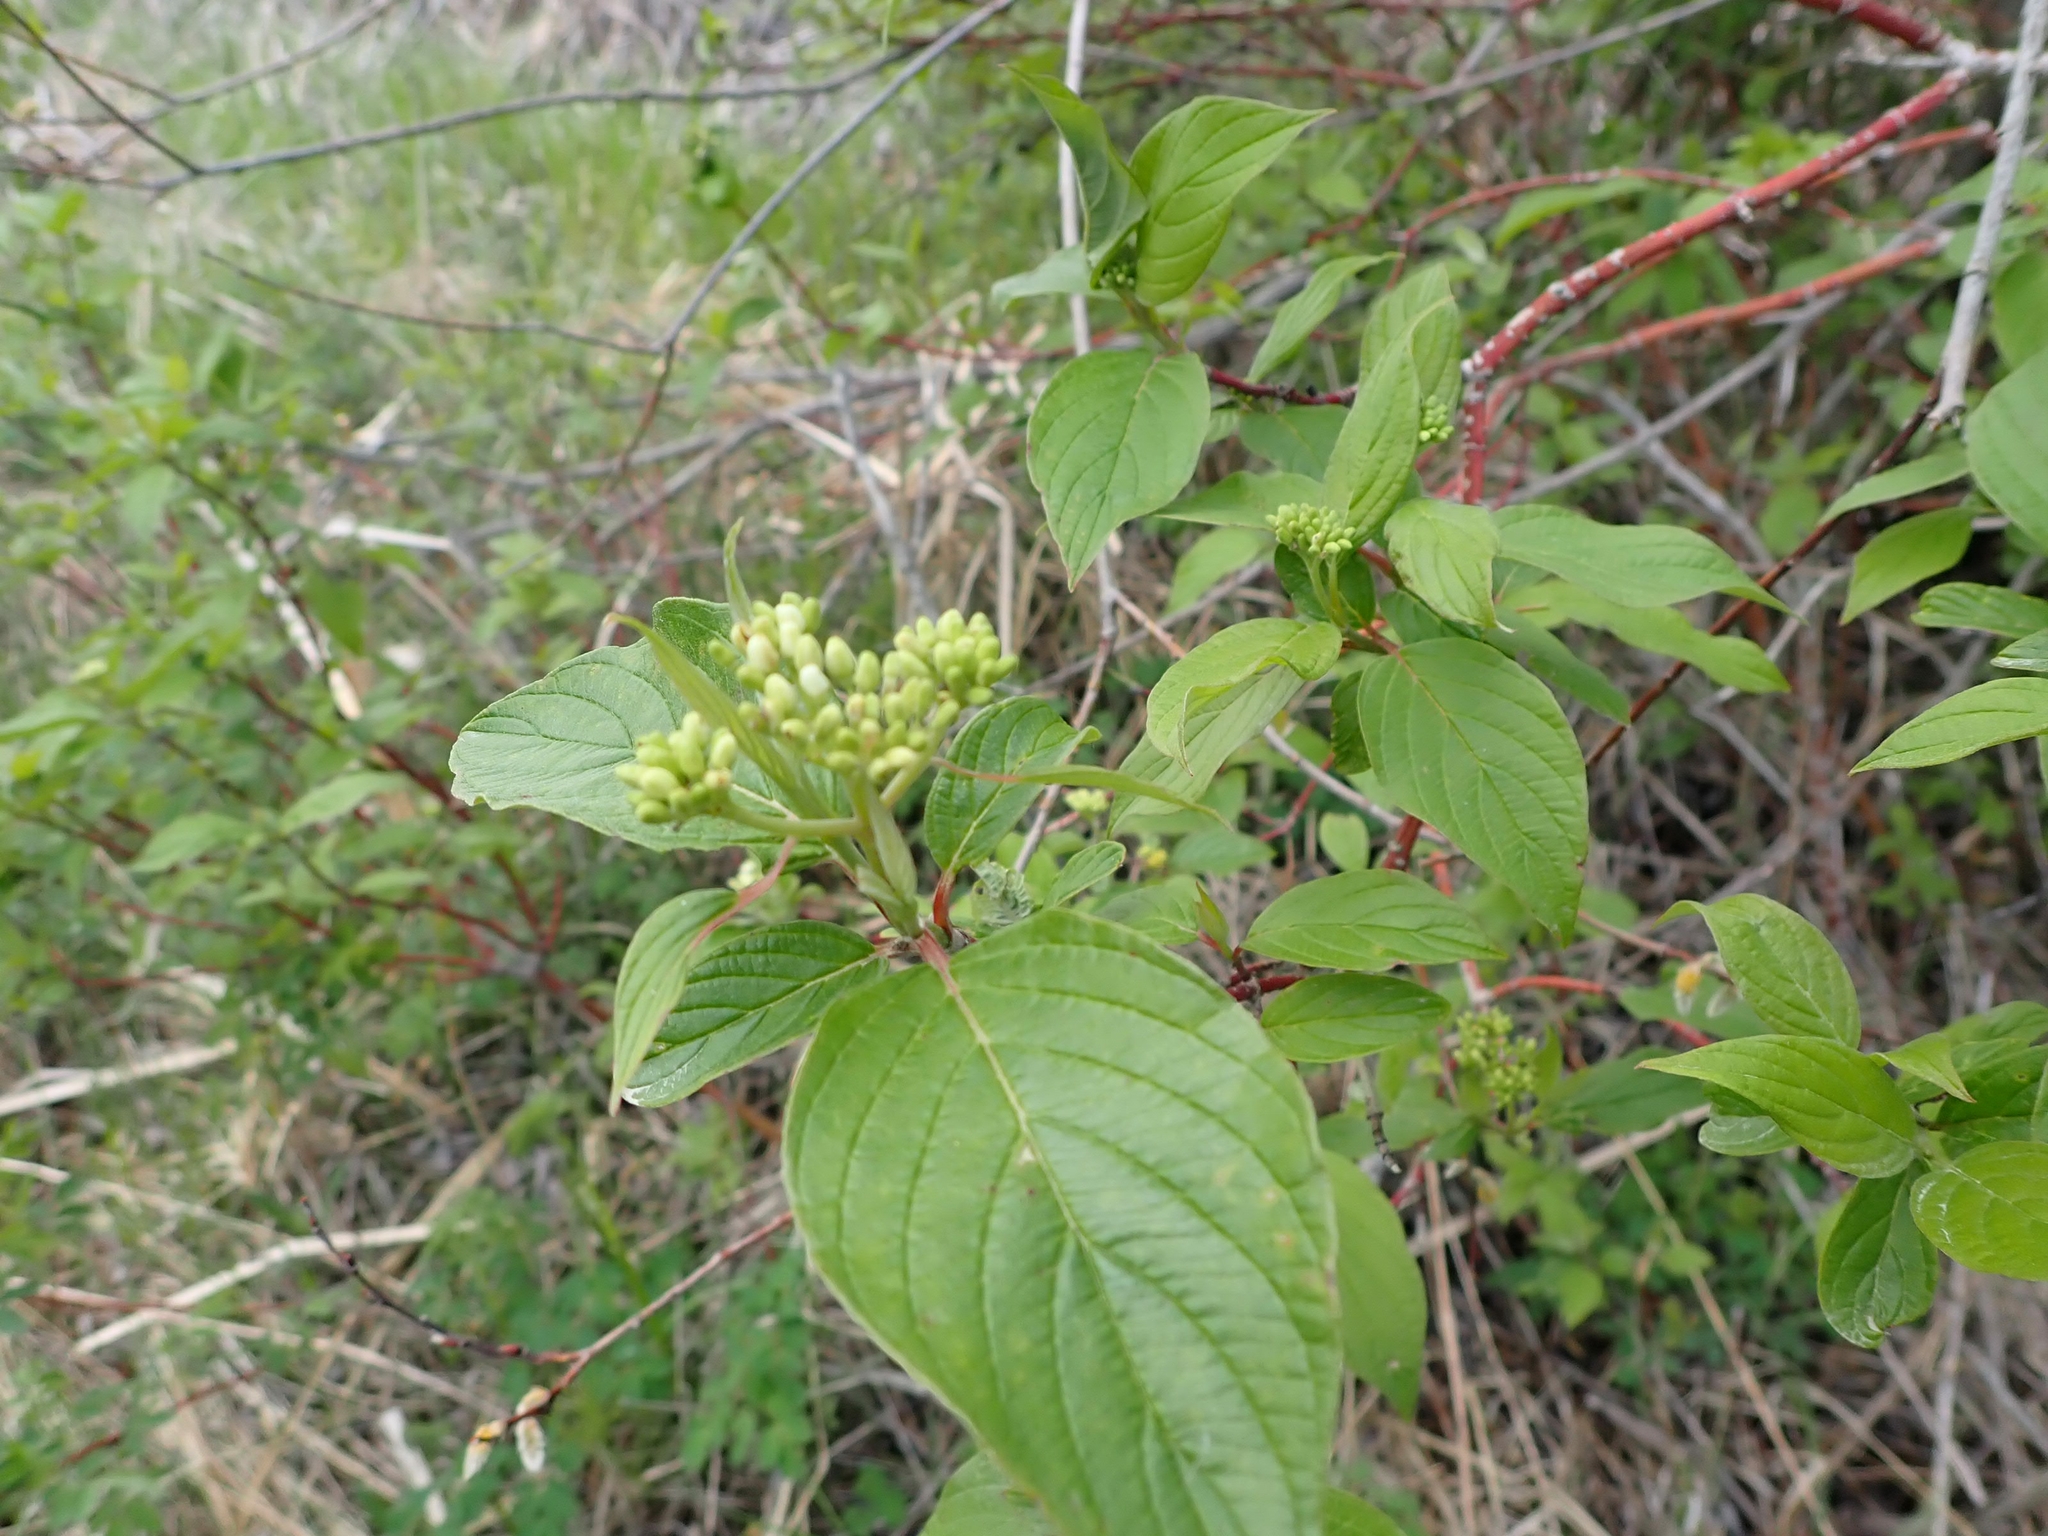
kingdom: Plantae
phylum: Tracheophyta
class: Magnoliopsida
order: Cornales
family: Cornaceae
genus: Cornus
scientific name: Cornus sericea
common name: Red-osier dogwood
